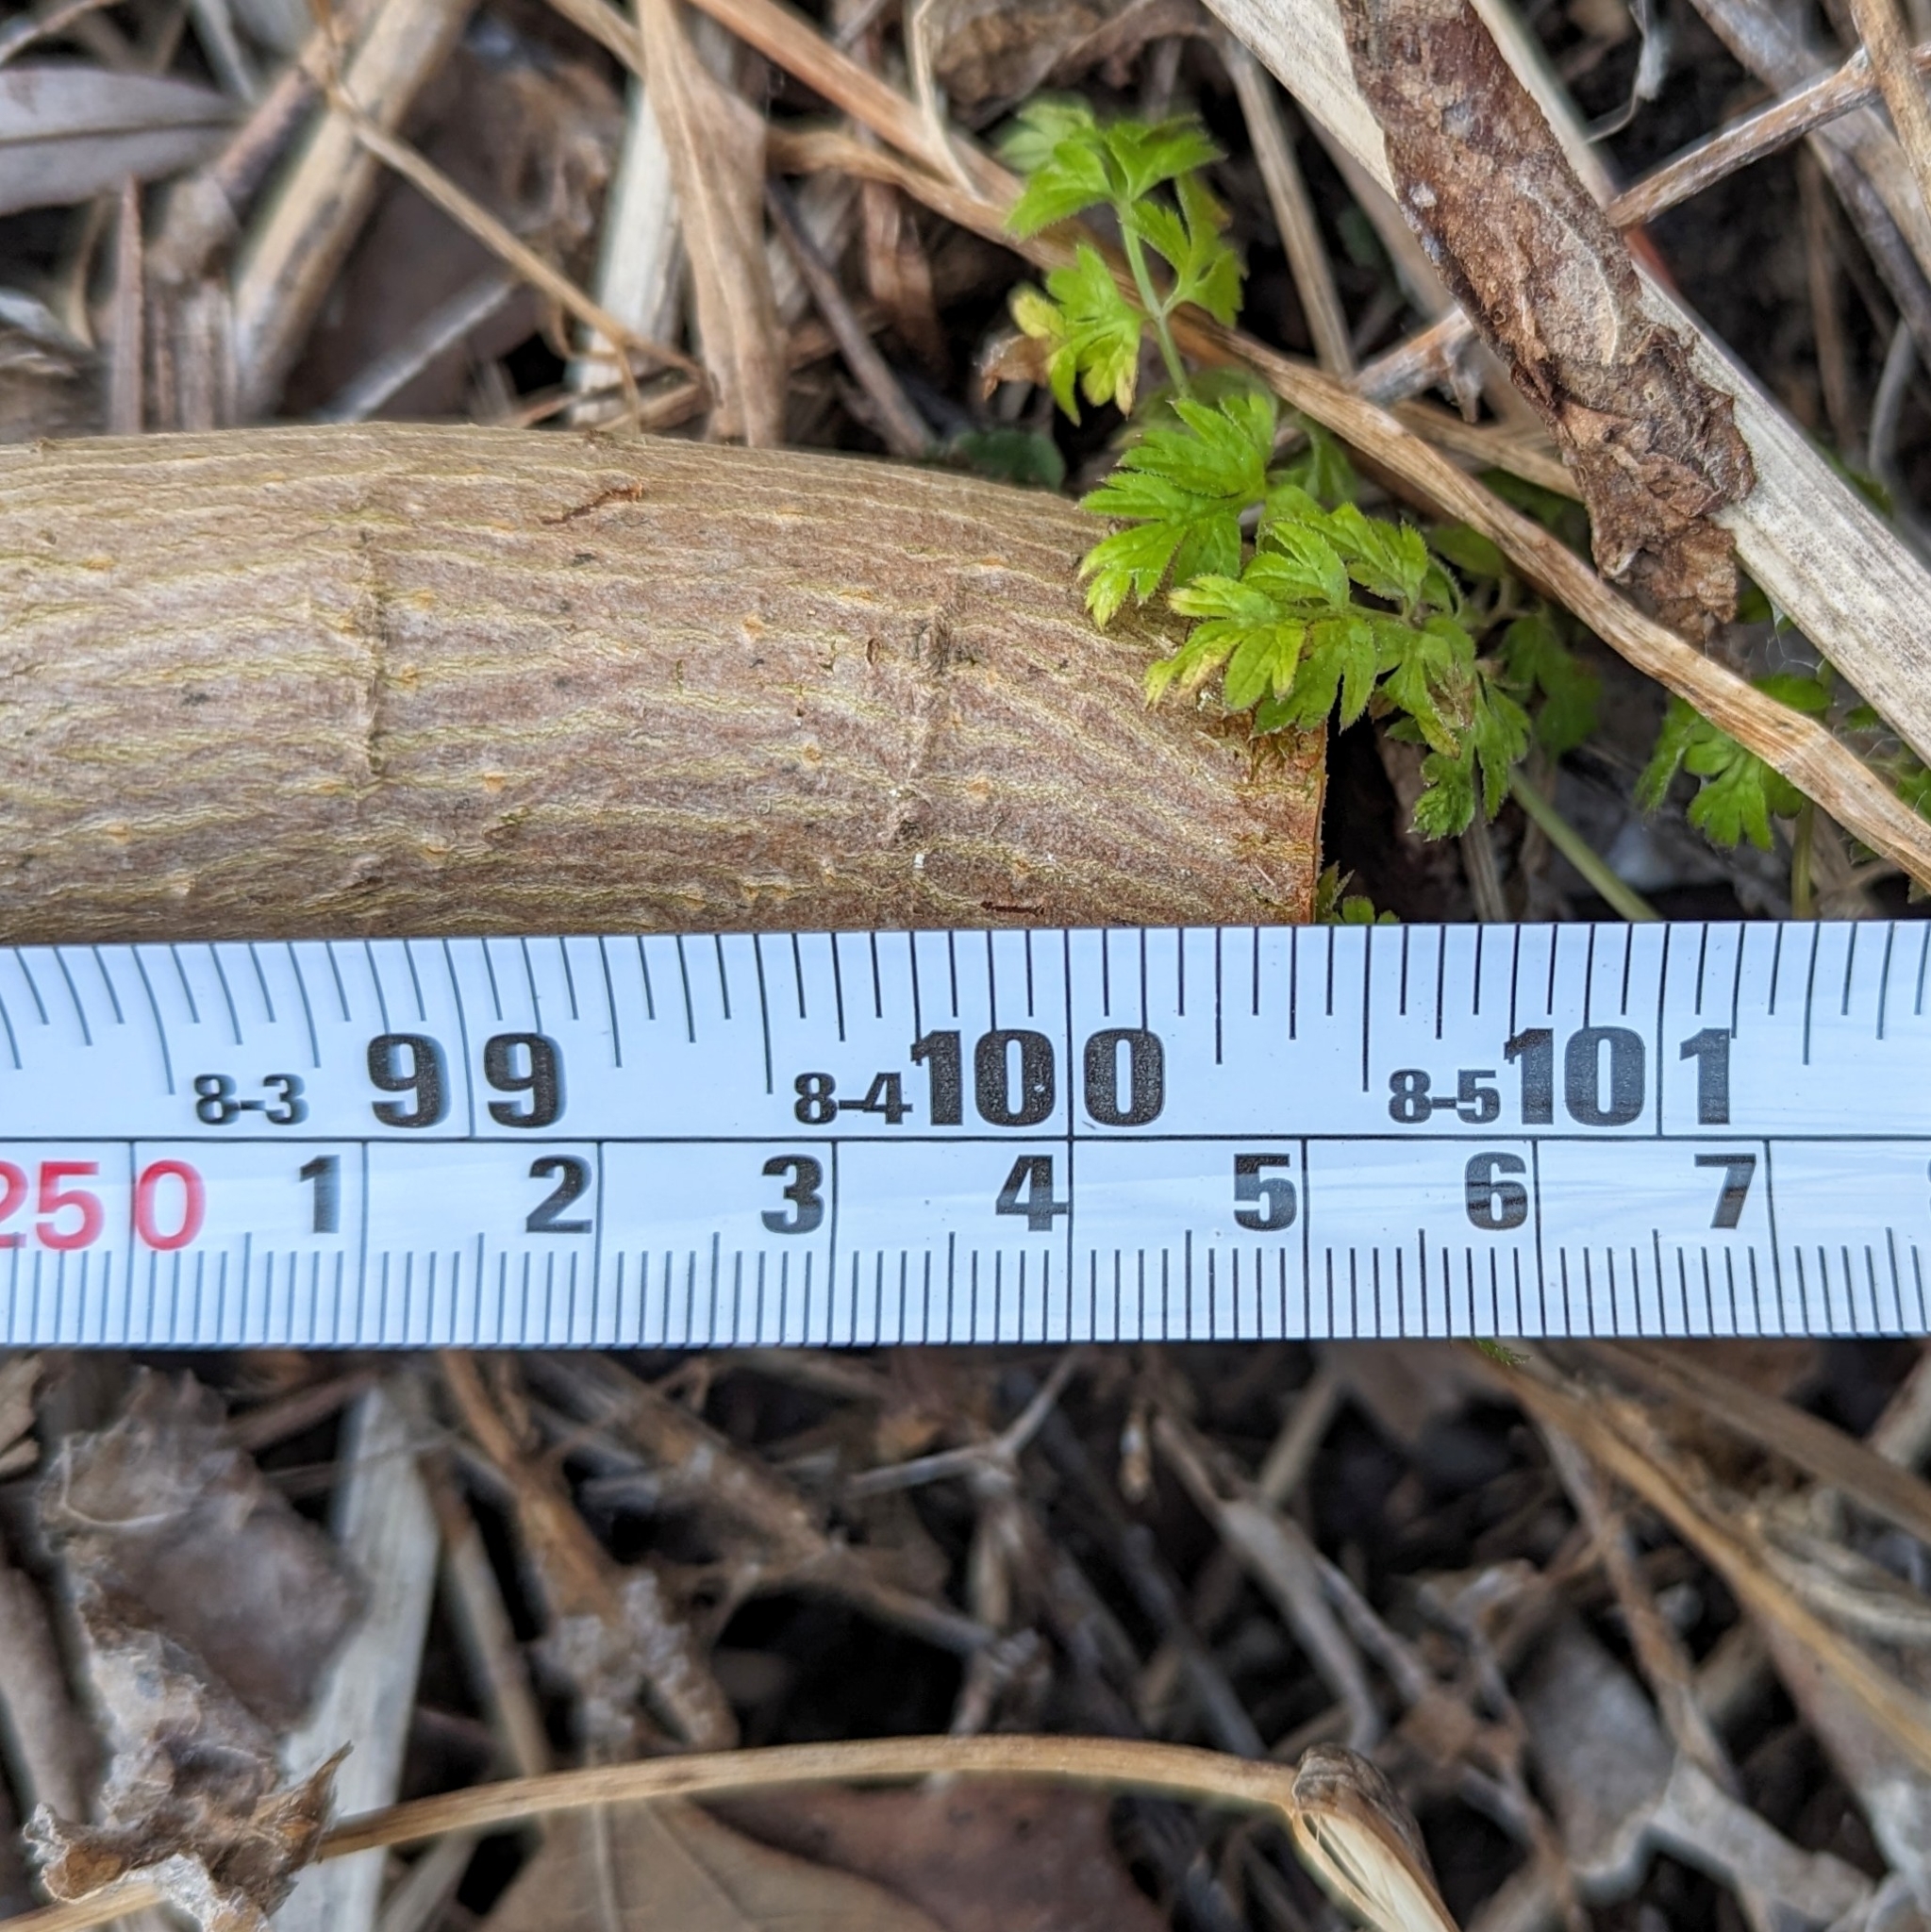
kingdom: Plantae
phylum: Tracheophyta
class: Magnoliopsida
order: Sapindales
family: Sapindaceae
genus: Acer
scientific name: Acer platanoides
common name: Norway maple
